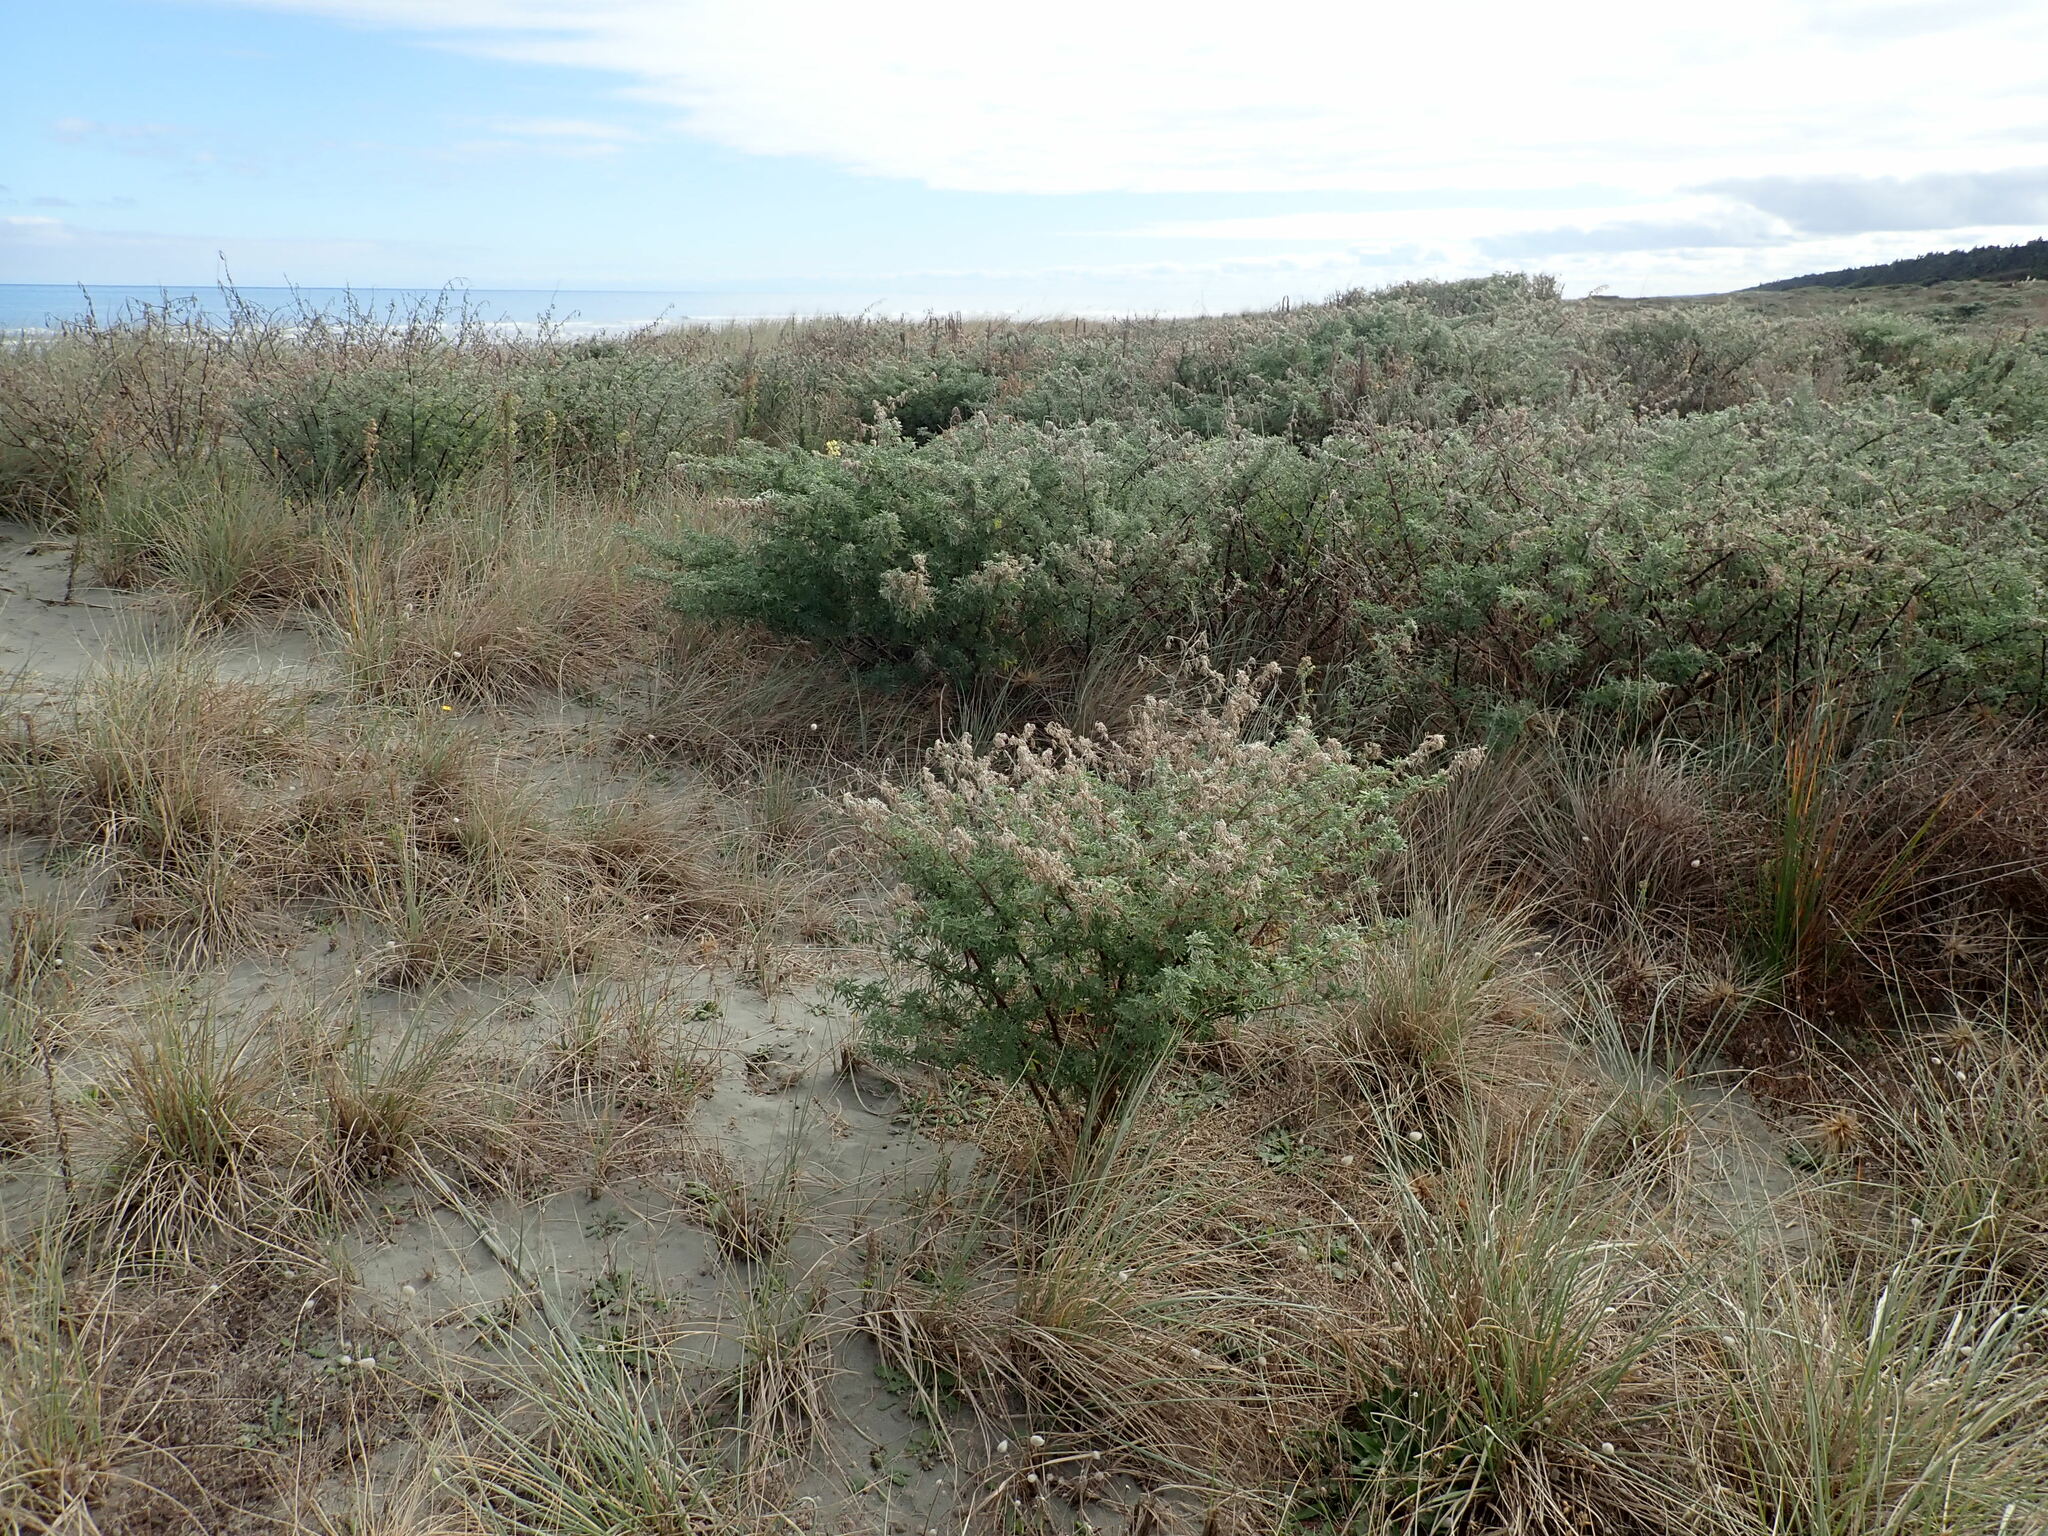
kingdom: Plantae
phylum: Tracheophyta
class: Magnoliopsida
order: Fabales
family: Fabaceae
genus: Lupinus
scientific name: Lupinus arboreus
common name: Yellow bush lupine
